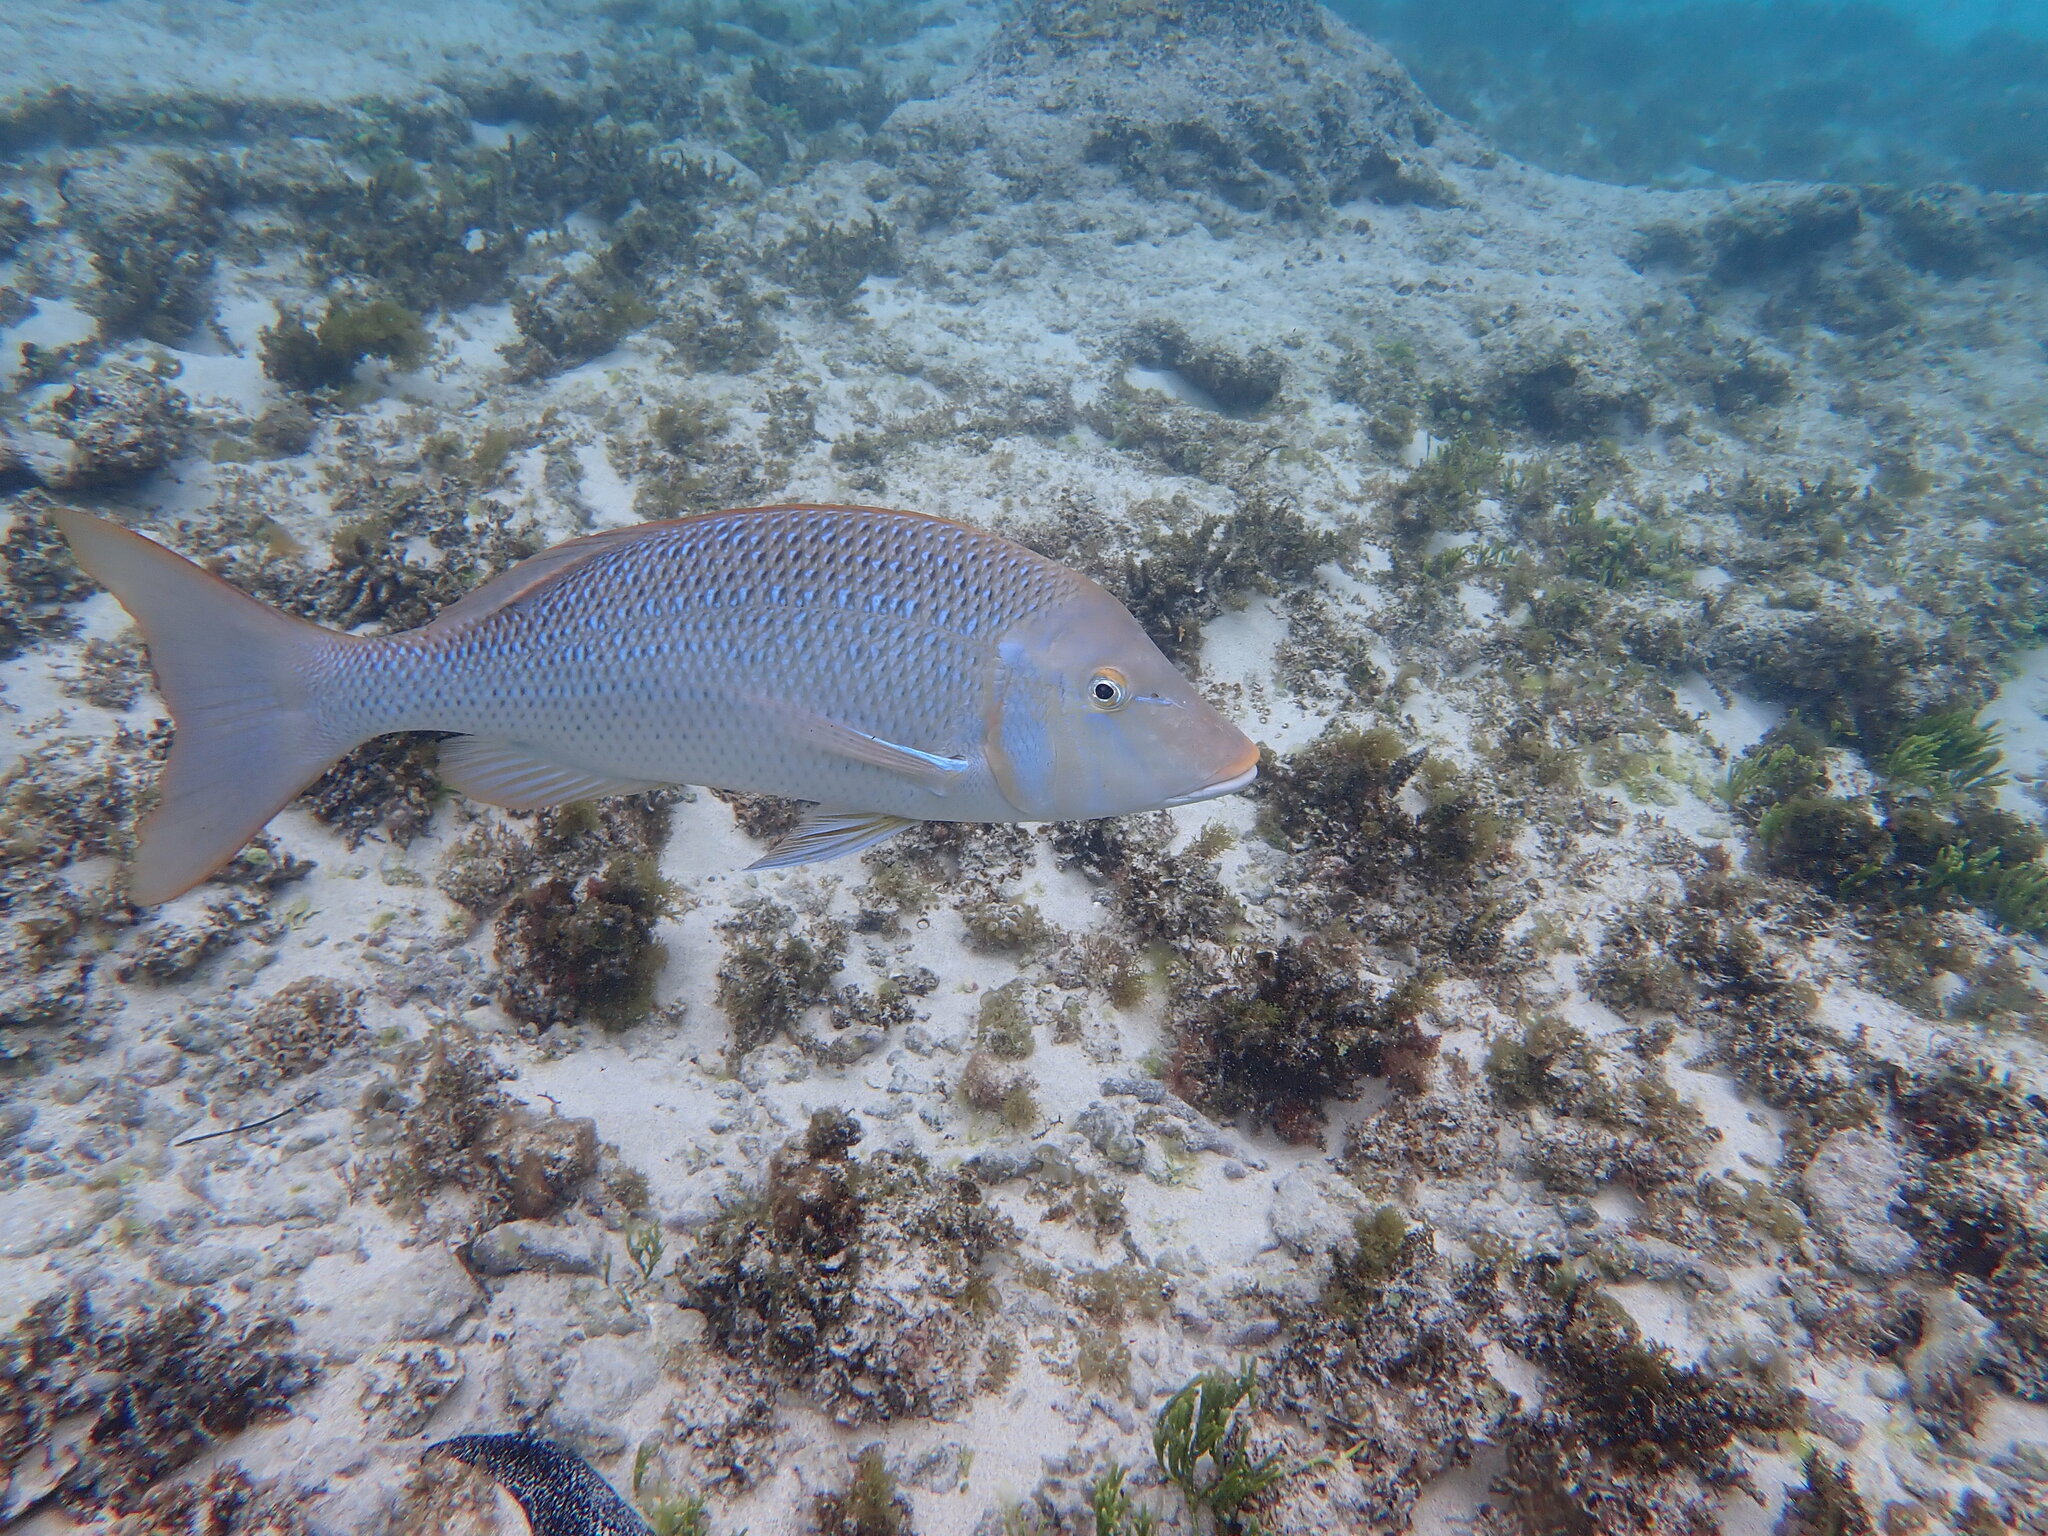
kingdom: Animalia
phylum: Chordata
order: Perciformes
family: Lethrinidae
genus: Lethrinus
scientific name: Lethrinus nebulosus
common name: Spangled emperor
